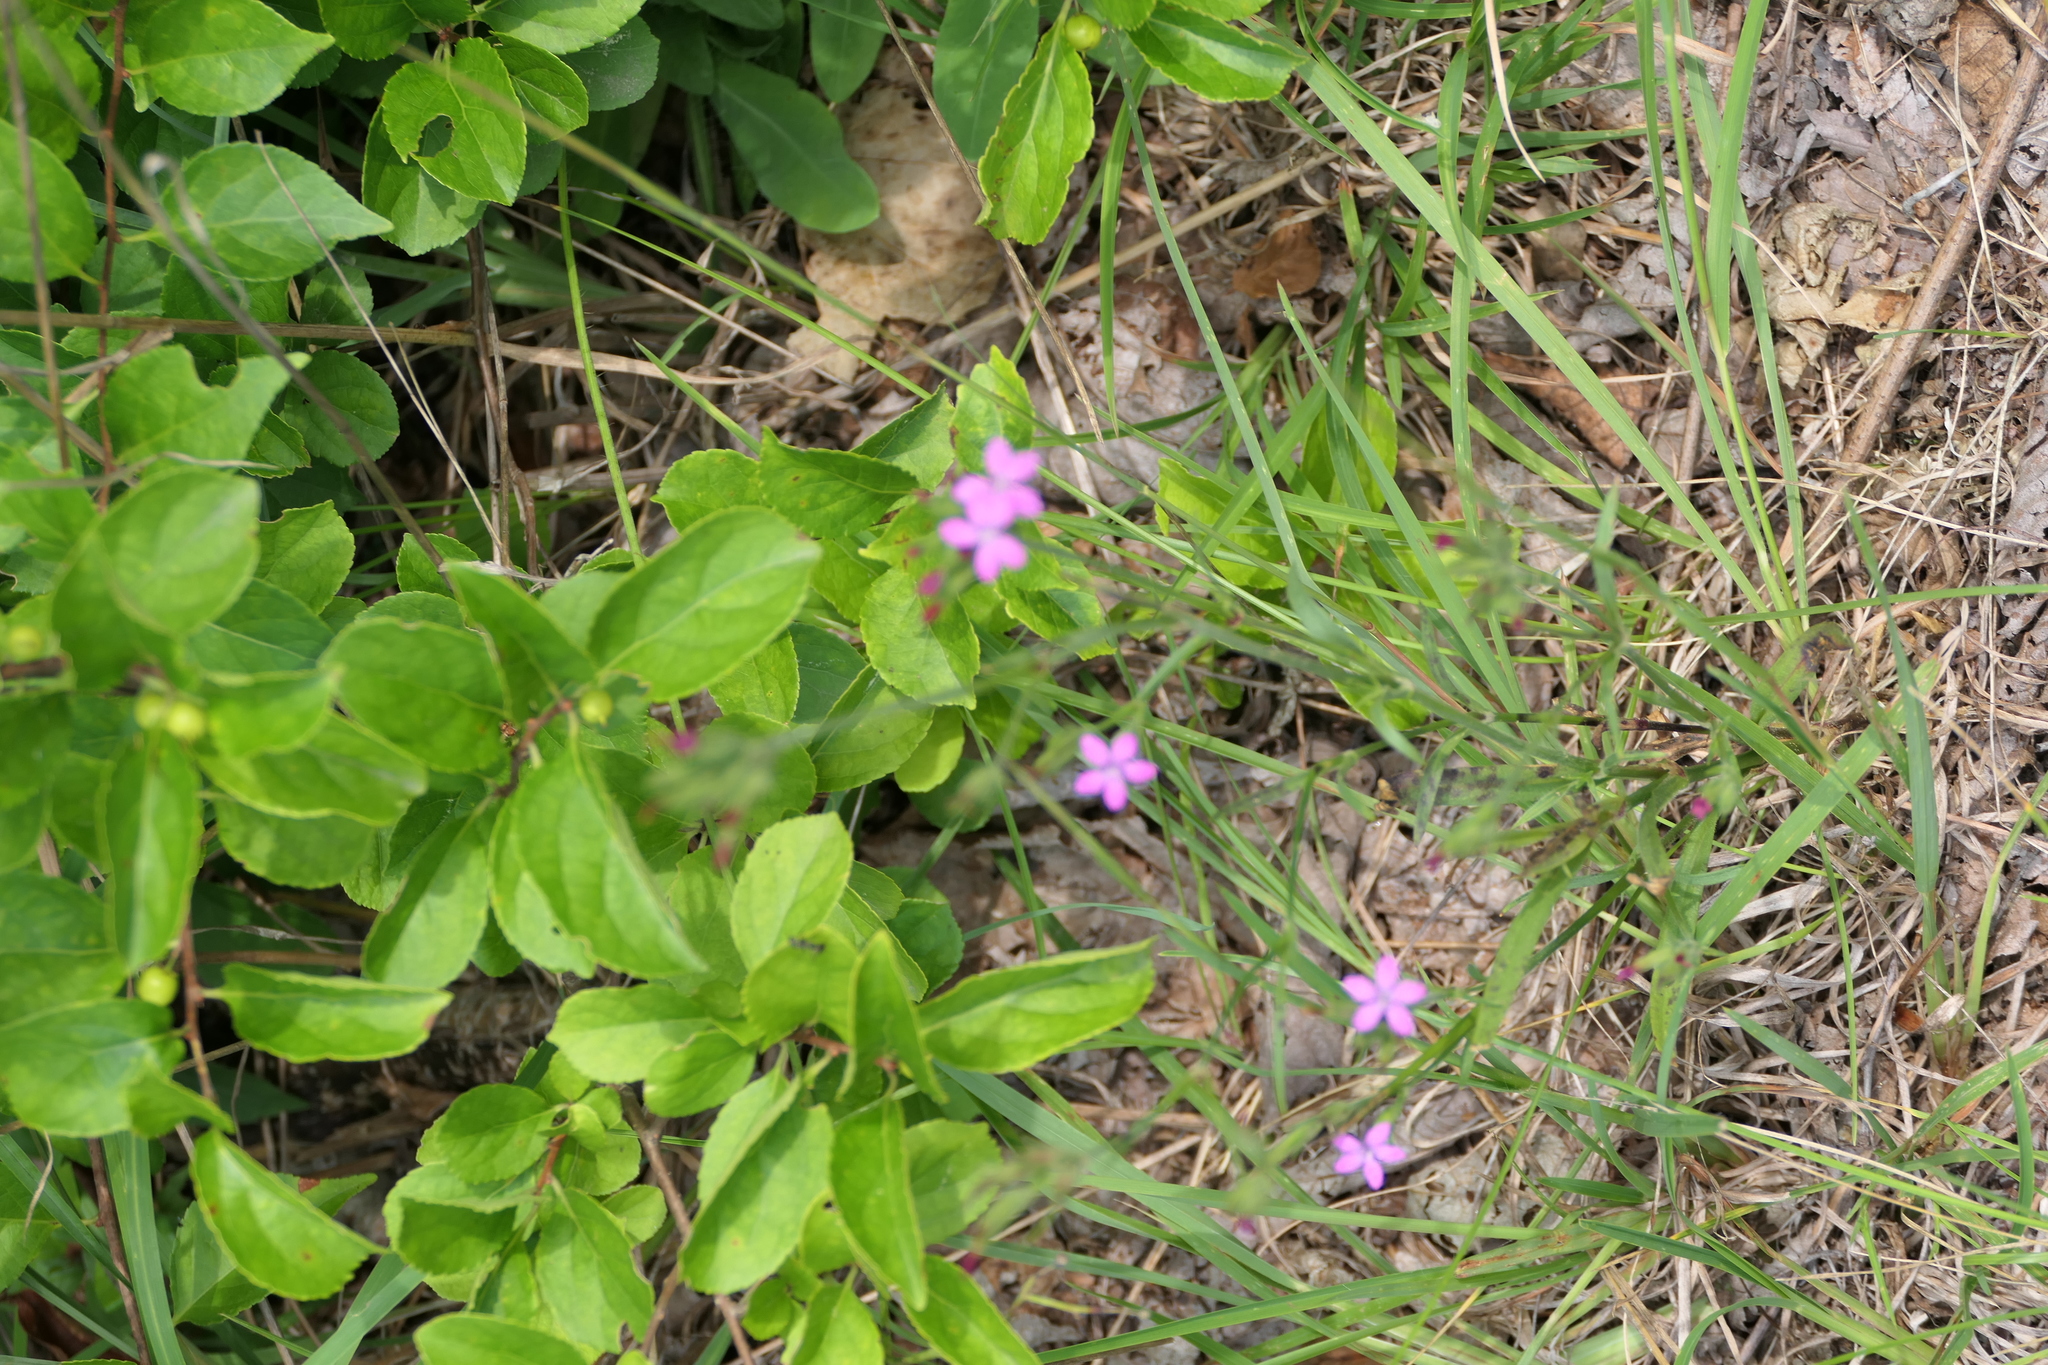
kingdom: Plantae
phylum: Tracheophyta
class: Magnoliopsida
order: Caryophyllales
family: Caryophyllaceae
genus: Dianthus
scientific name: Dianthus armeria
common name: Deptford pink
